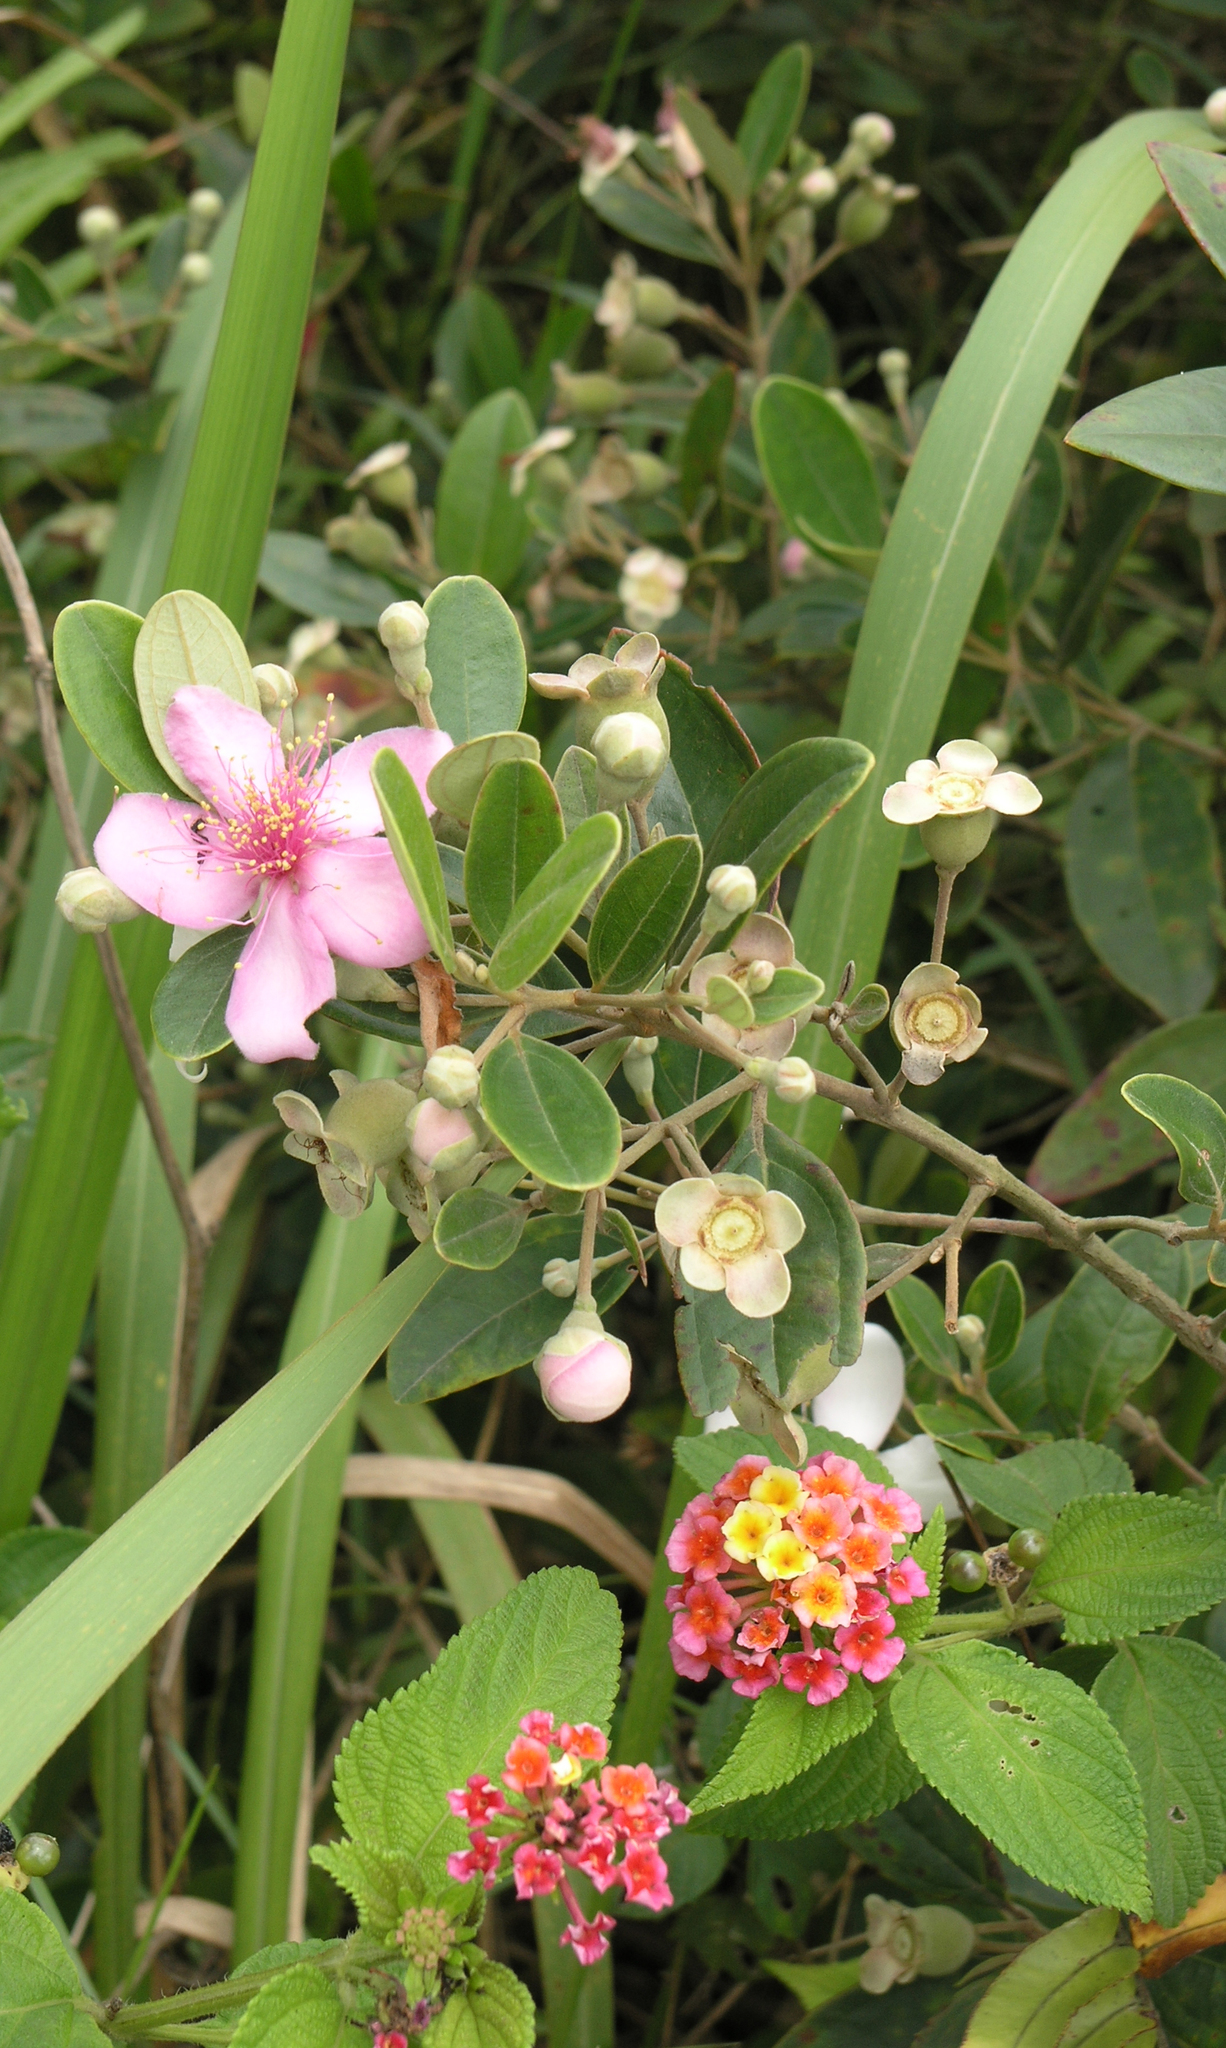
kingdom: Plantae
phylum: Tracheophyta
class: Magnoliopsida
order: Myrtales
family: Myrtaceae
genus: Rhodomyrtus
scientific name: Rhodomyrtus tomentosa
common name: Rose myrtle
